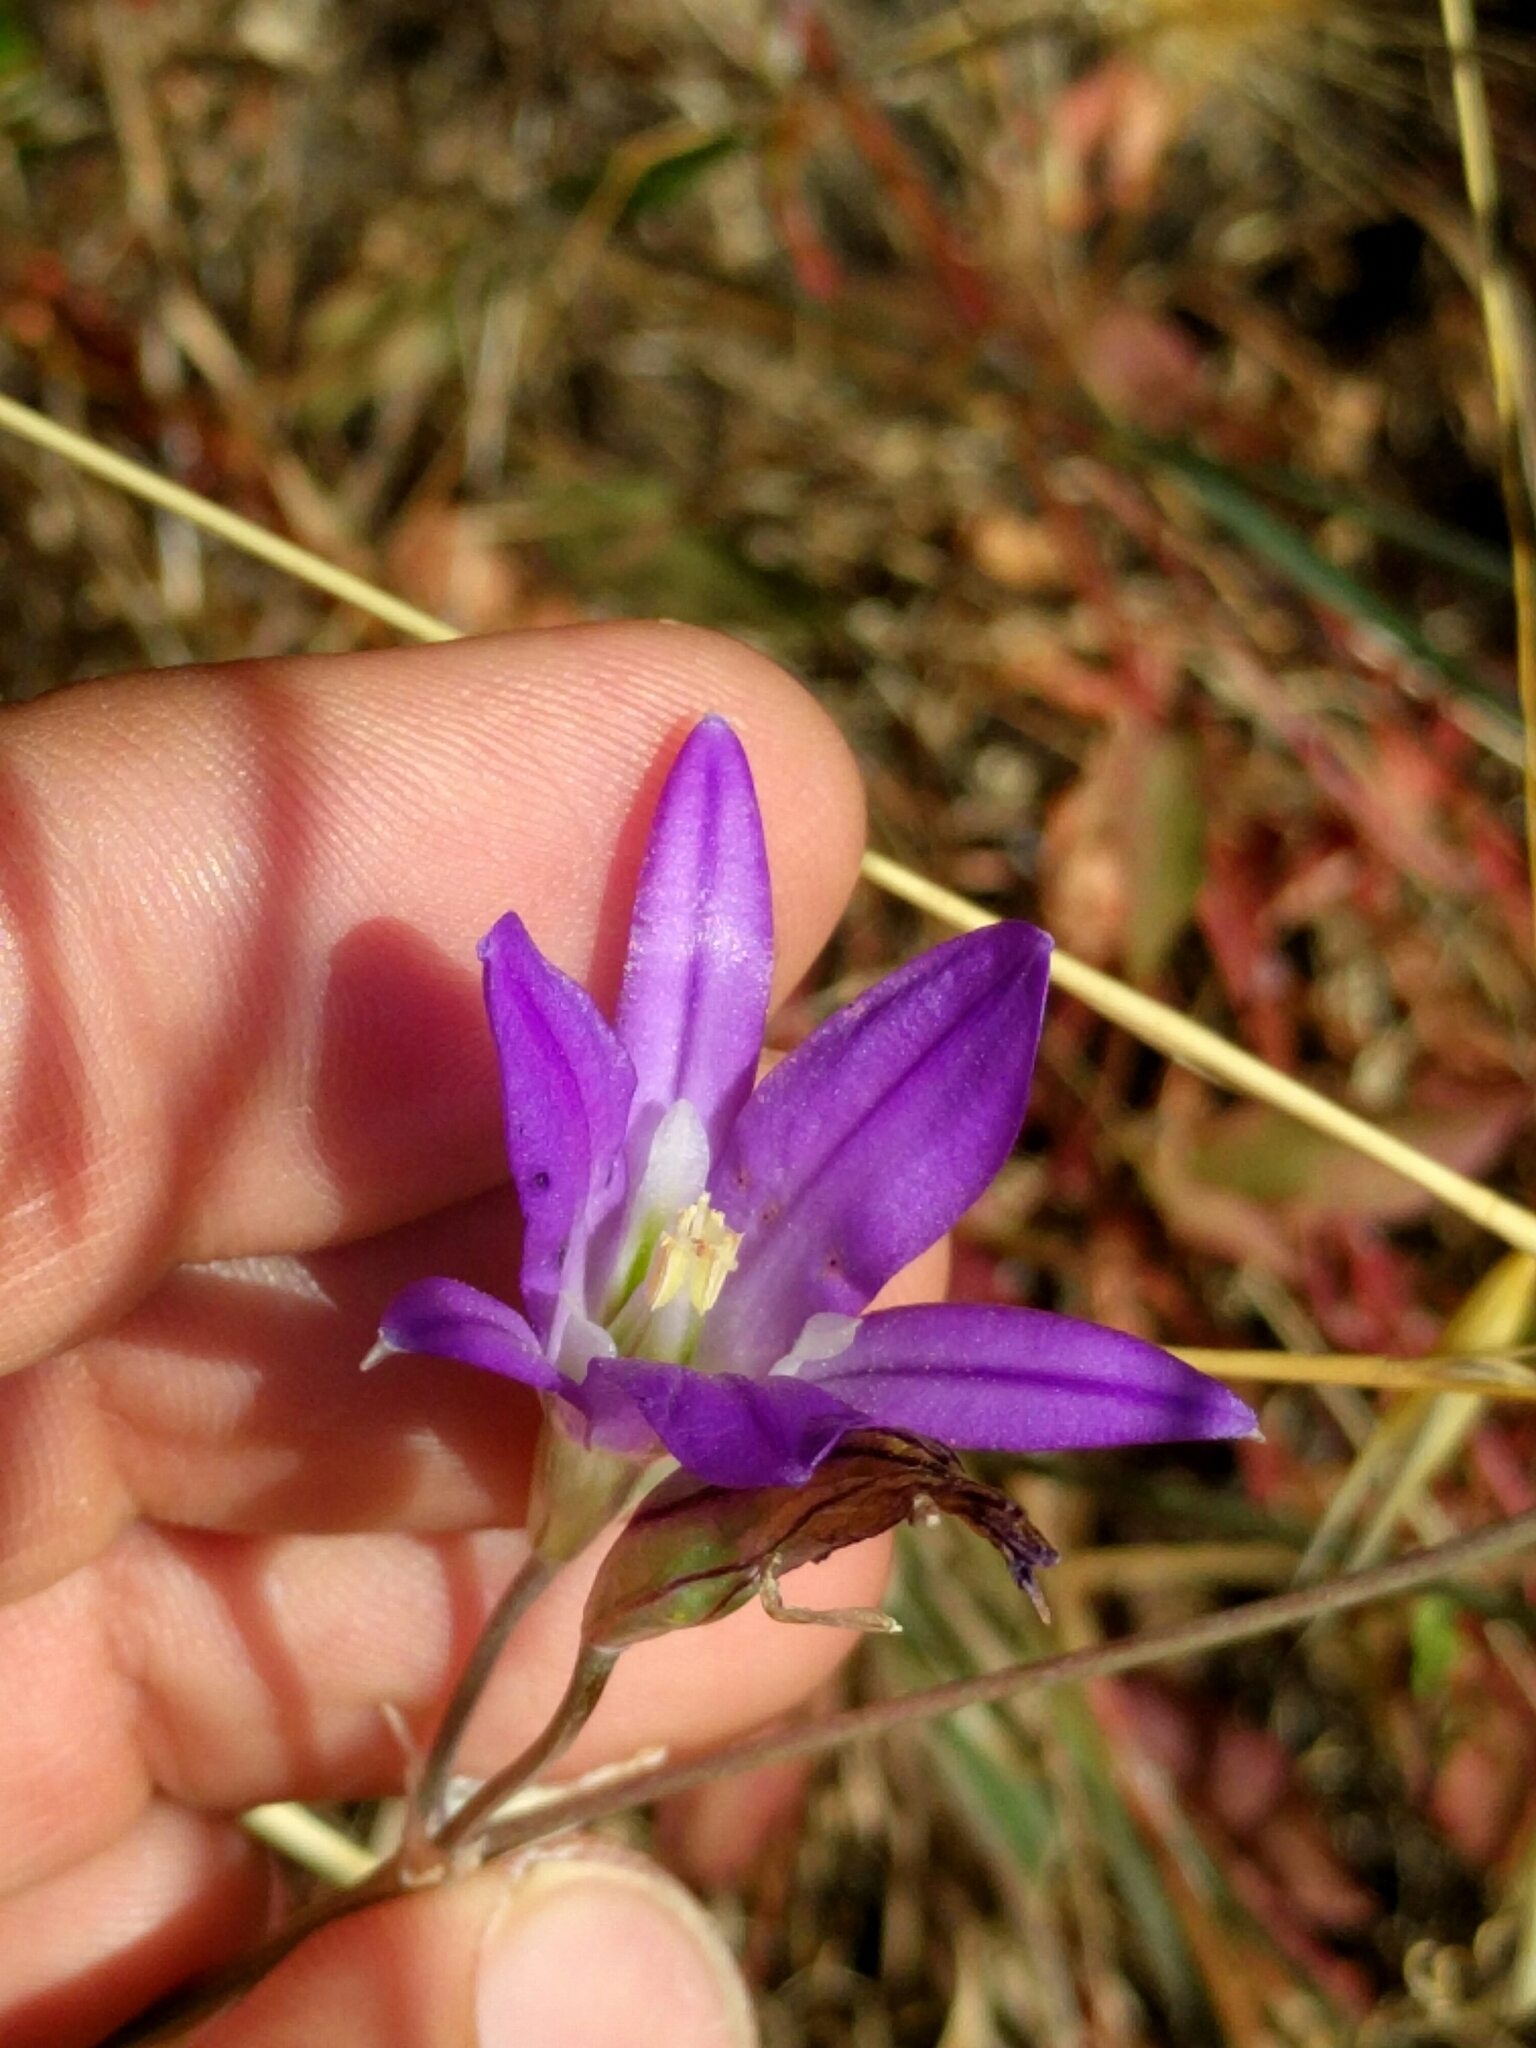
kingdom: Plantae
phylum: Tracheophyta
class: Liliopsida
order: Asparagales
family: Asparagaceae
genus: Brodiaea
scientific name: Brodiaea elegans
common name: Elegant cluster-lily
